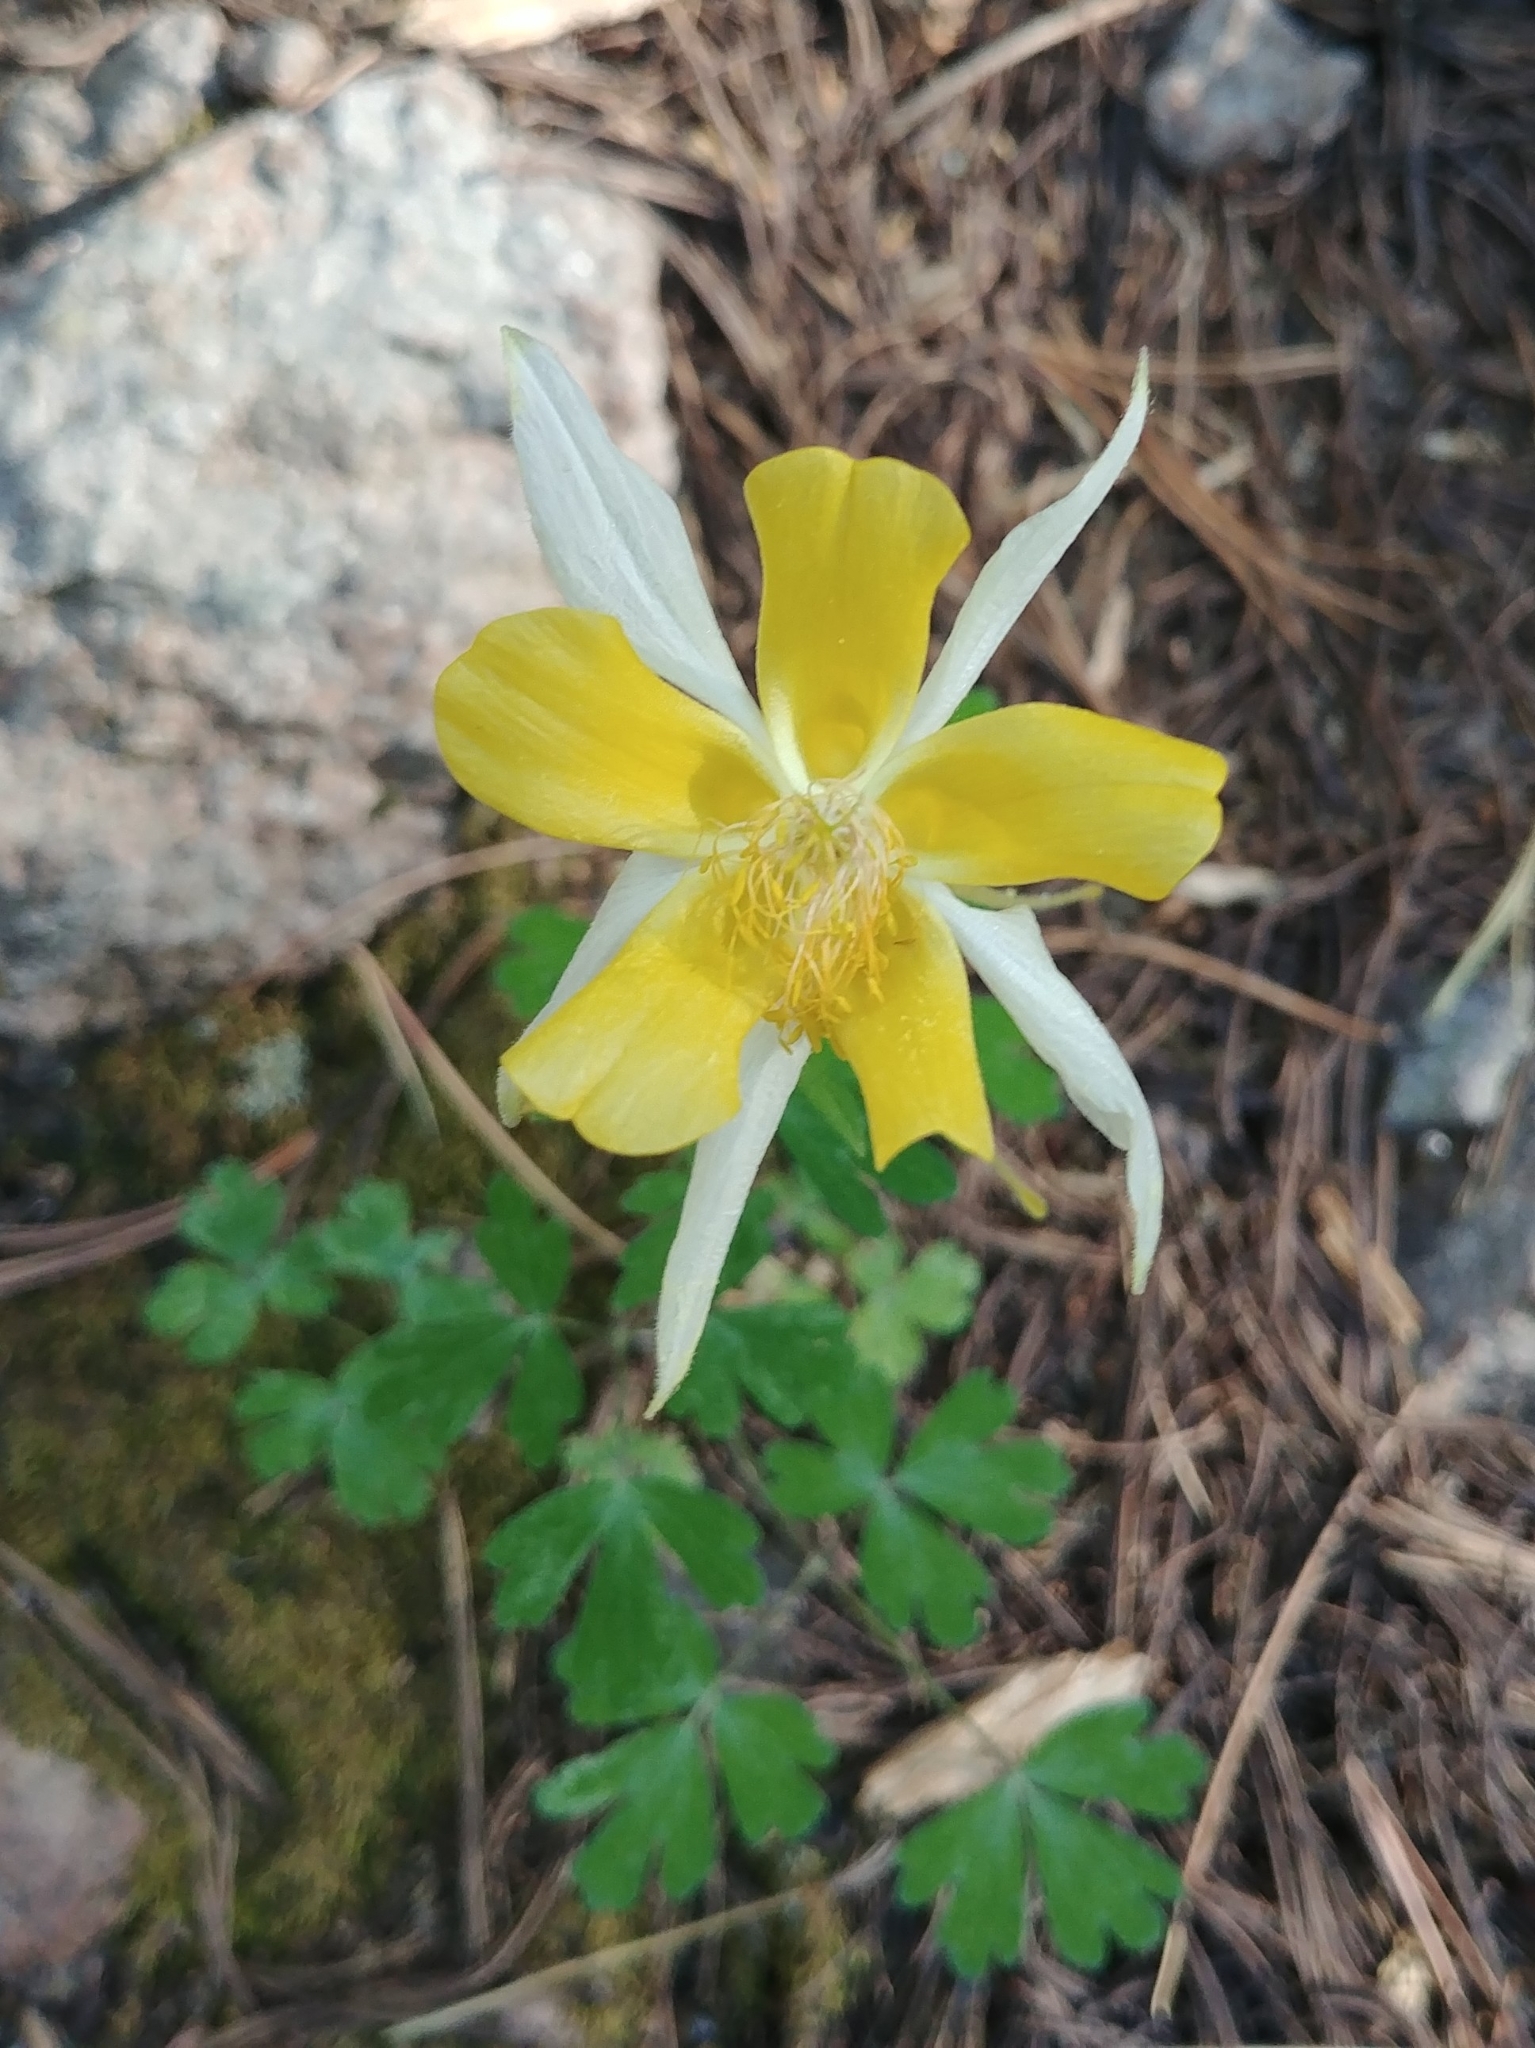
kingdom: Plantae
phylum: Tracheophyta
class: Magnoliopsida
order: Ranunculales
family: Ranunculaceae
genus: Aquilegia
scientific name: Aquilegia chrysantha
